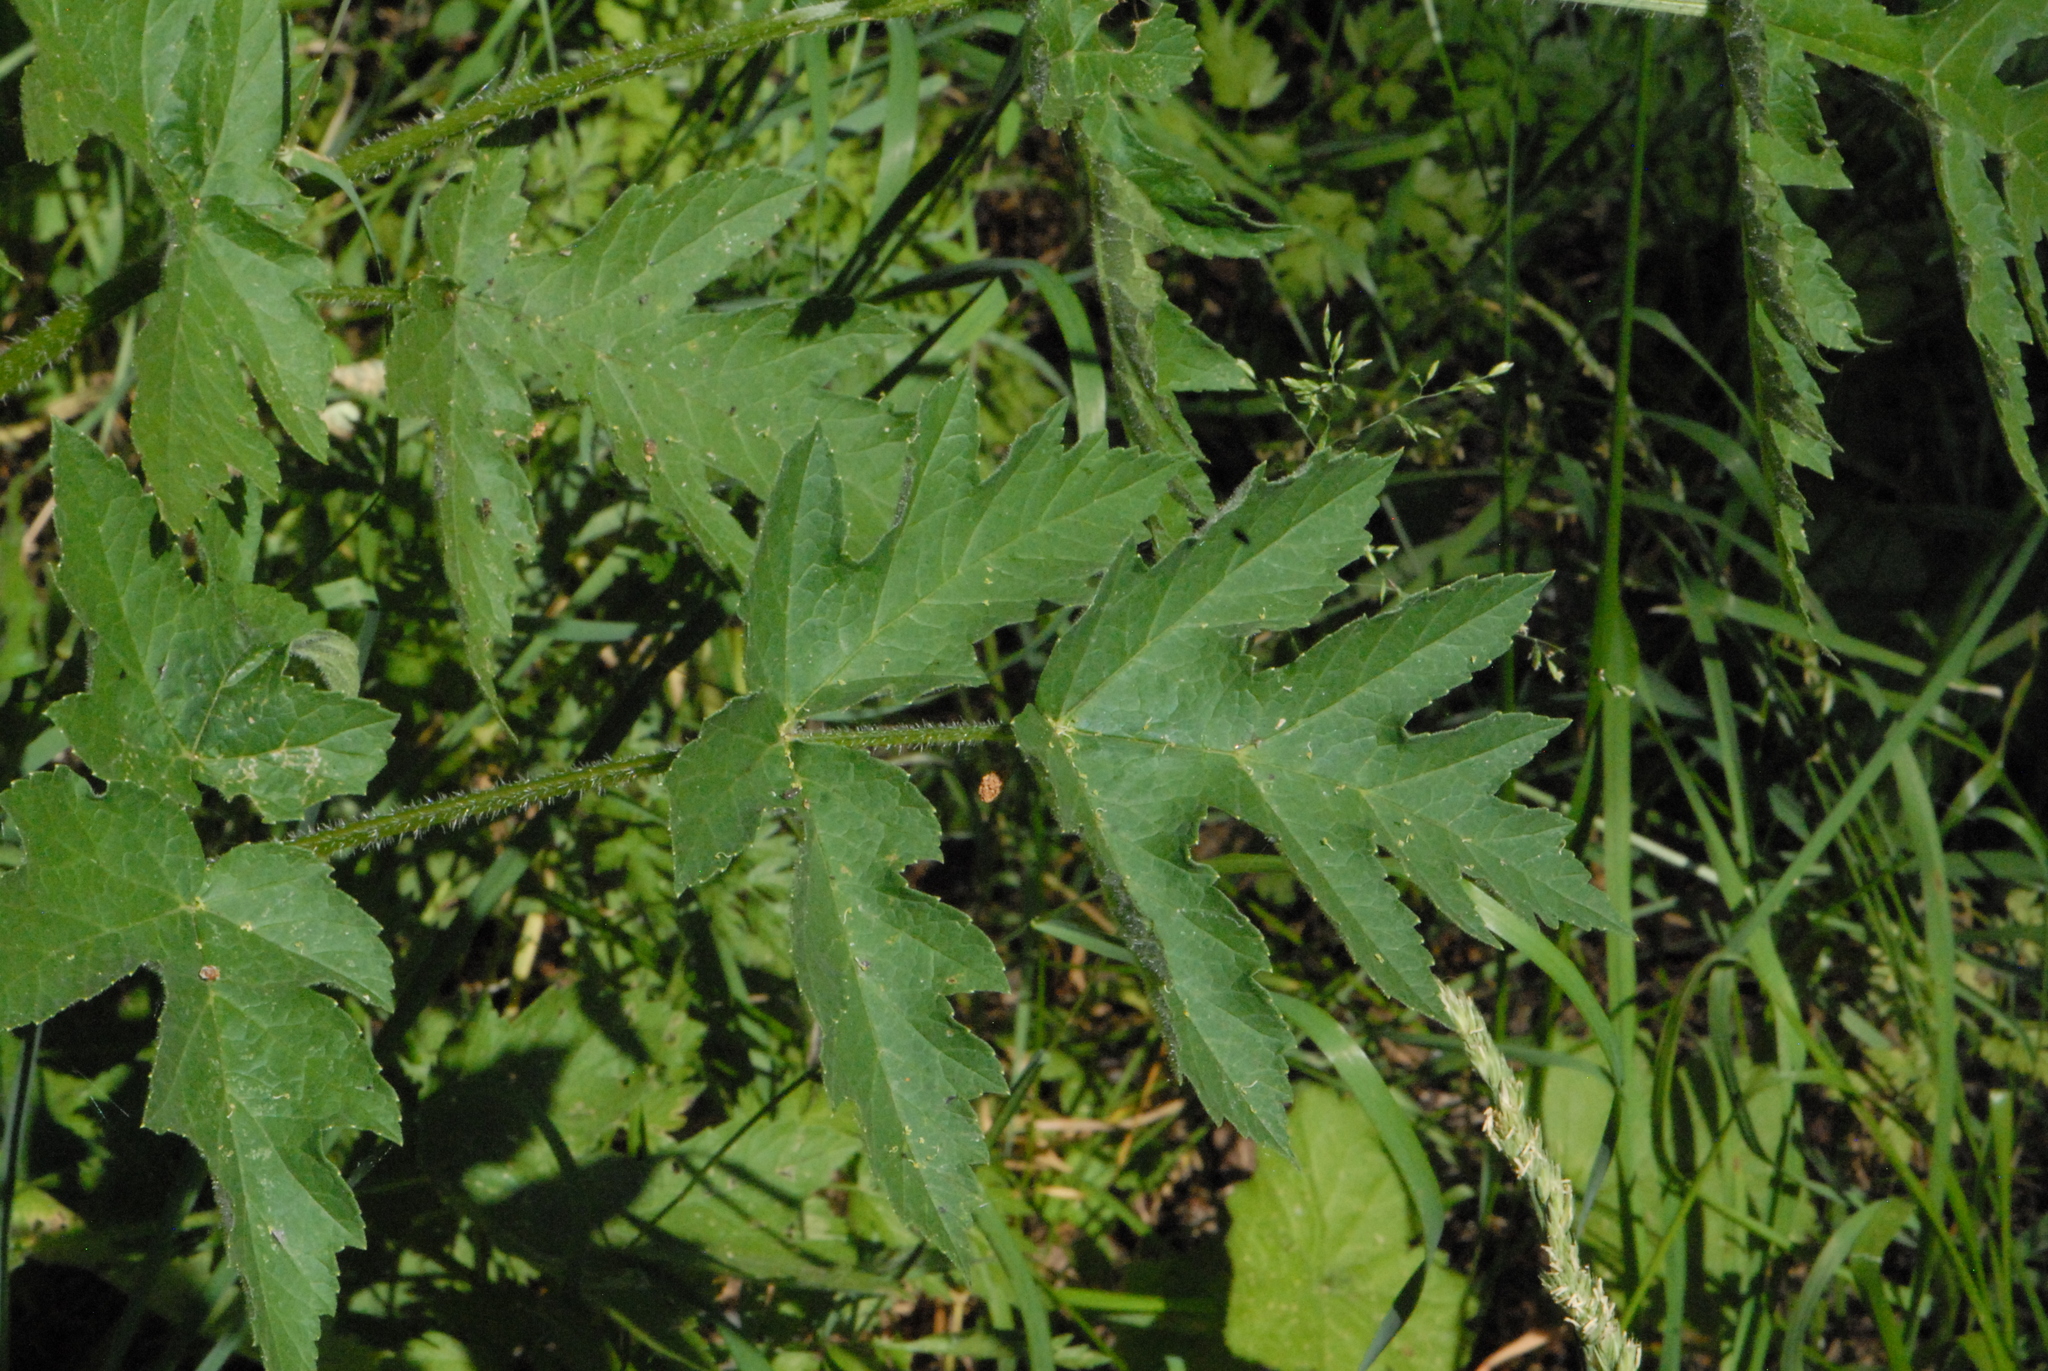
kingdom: Plantae
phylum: Tracheophyta
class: Magnoliopsida
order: Apiales
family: Apiaceae
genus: Heracleum
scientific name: Heracleum sphondylium
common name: Hogweed
